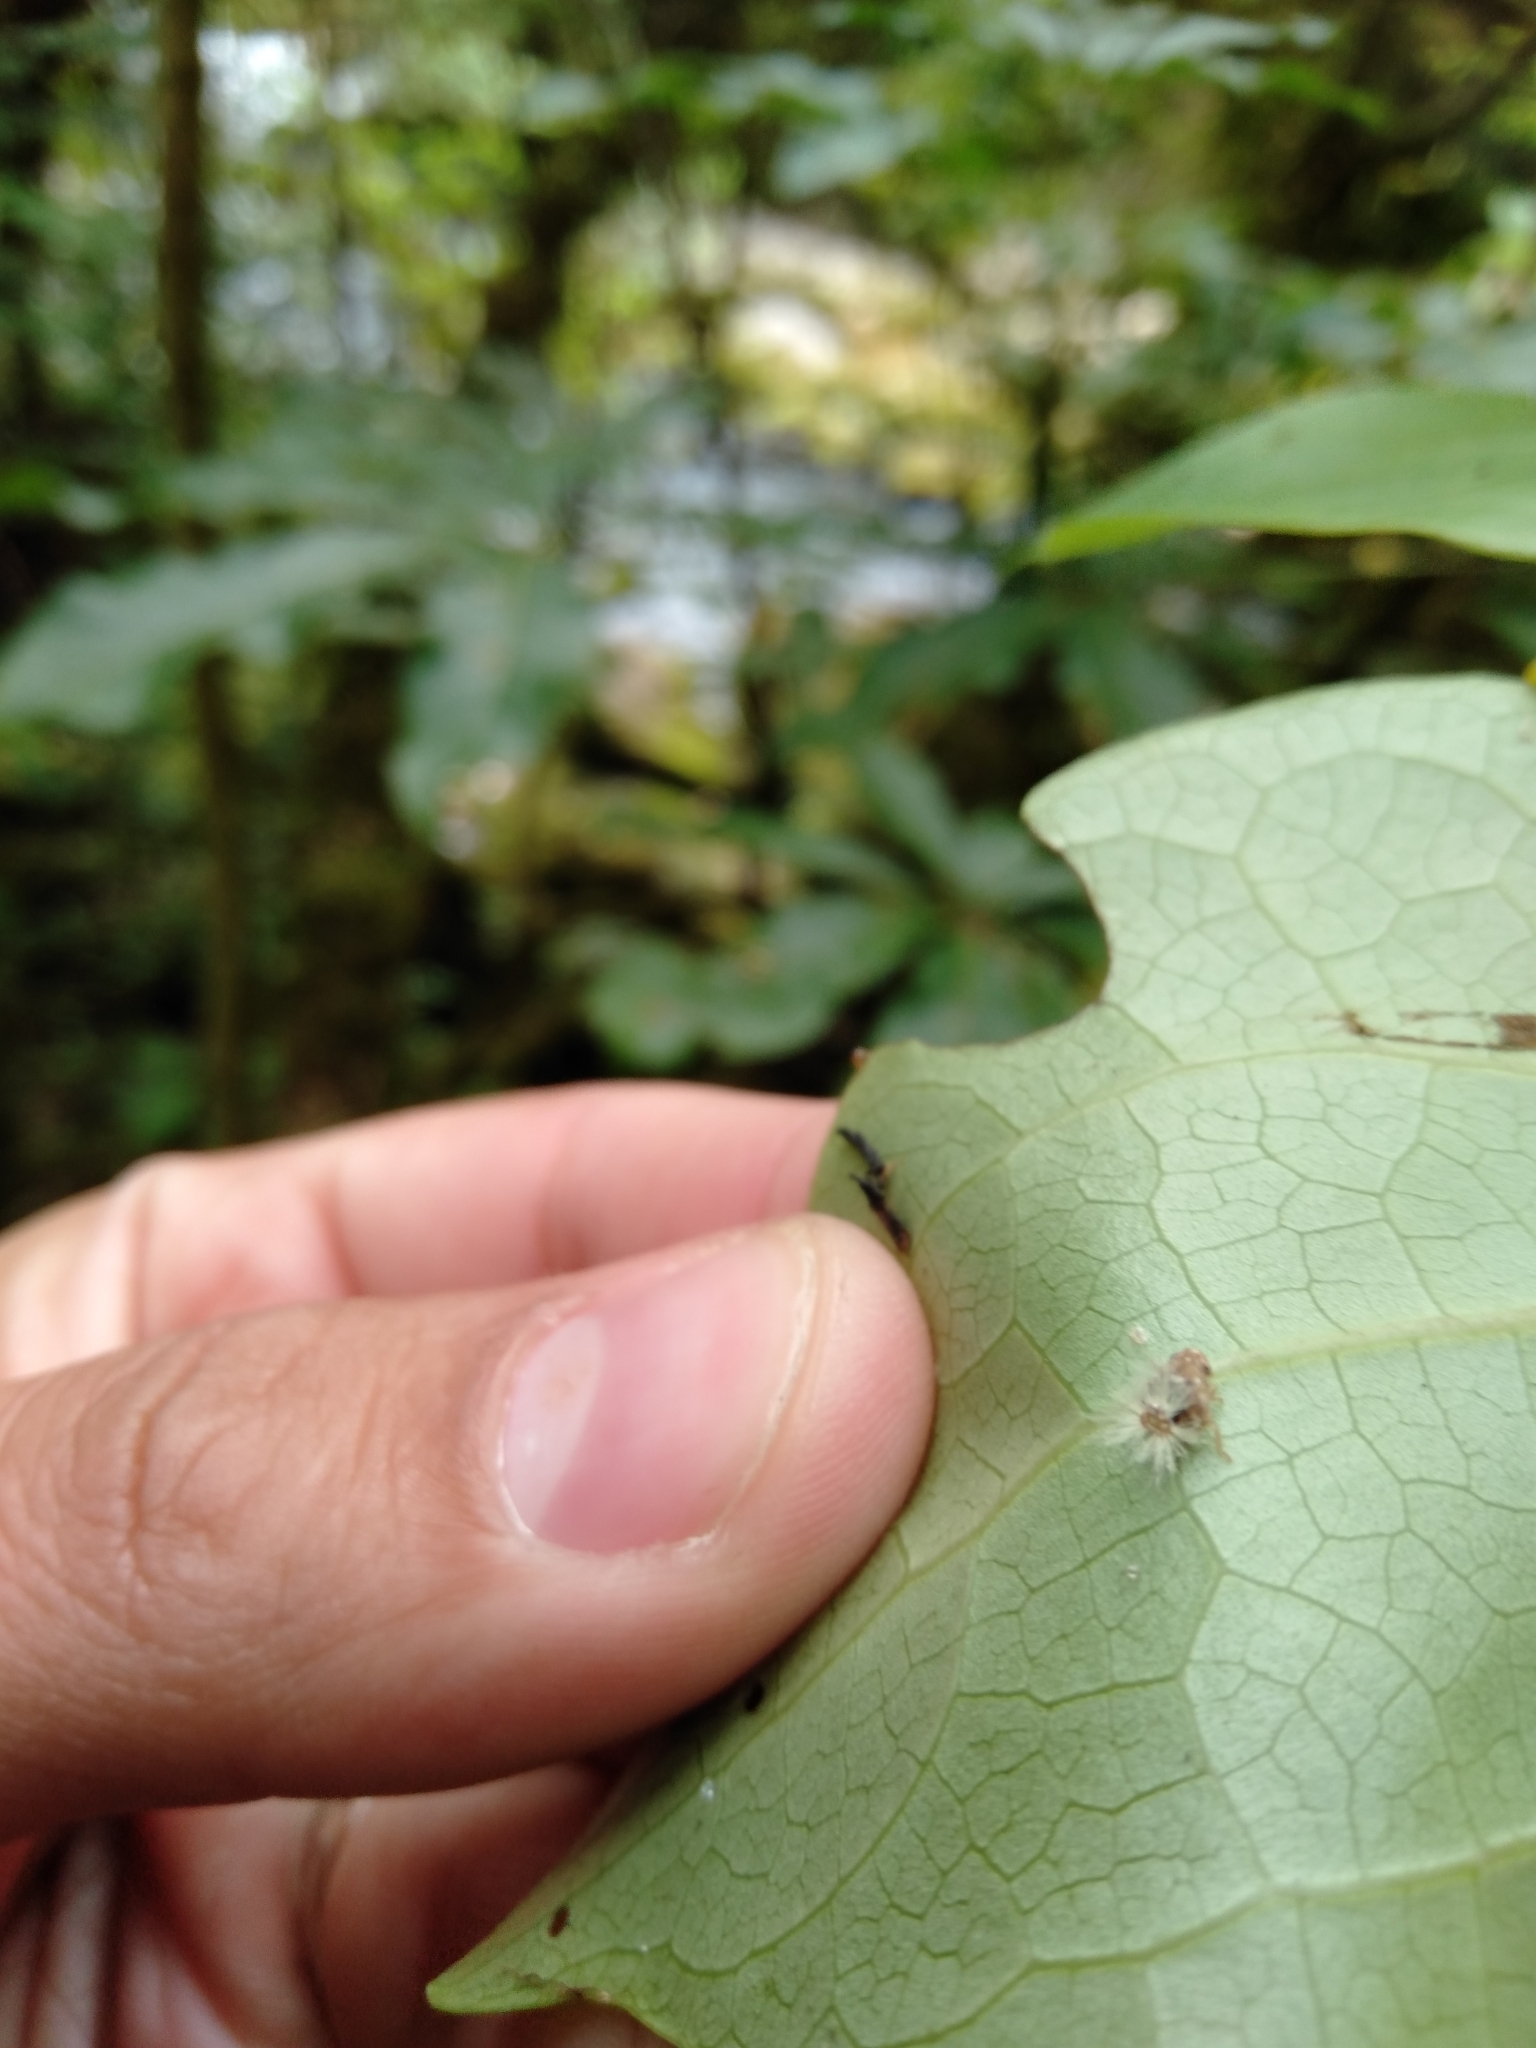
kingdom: Animalia
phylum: Arthropoda
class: Insecta
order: Hemiptera
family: Ricaniidae
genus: Scolypopa
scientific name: Scolypopa australis
